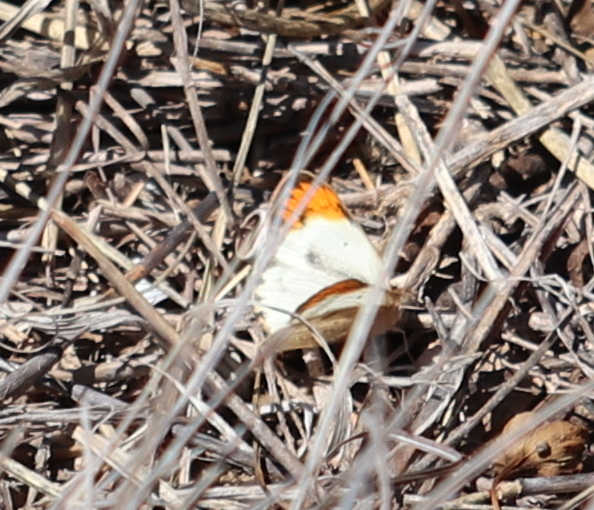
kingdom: Animalia
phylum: Arthropoda
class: Insecta
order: Lepidoptera
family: Pieridae
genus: Colotis
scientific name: Colotis antevippe
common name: Large orange tip
